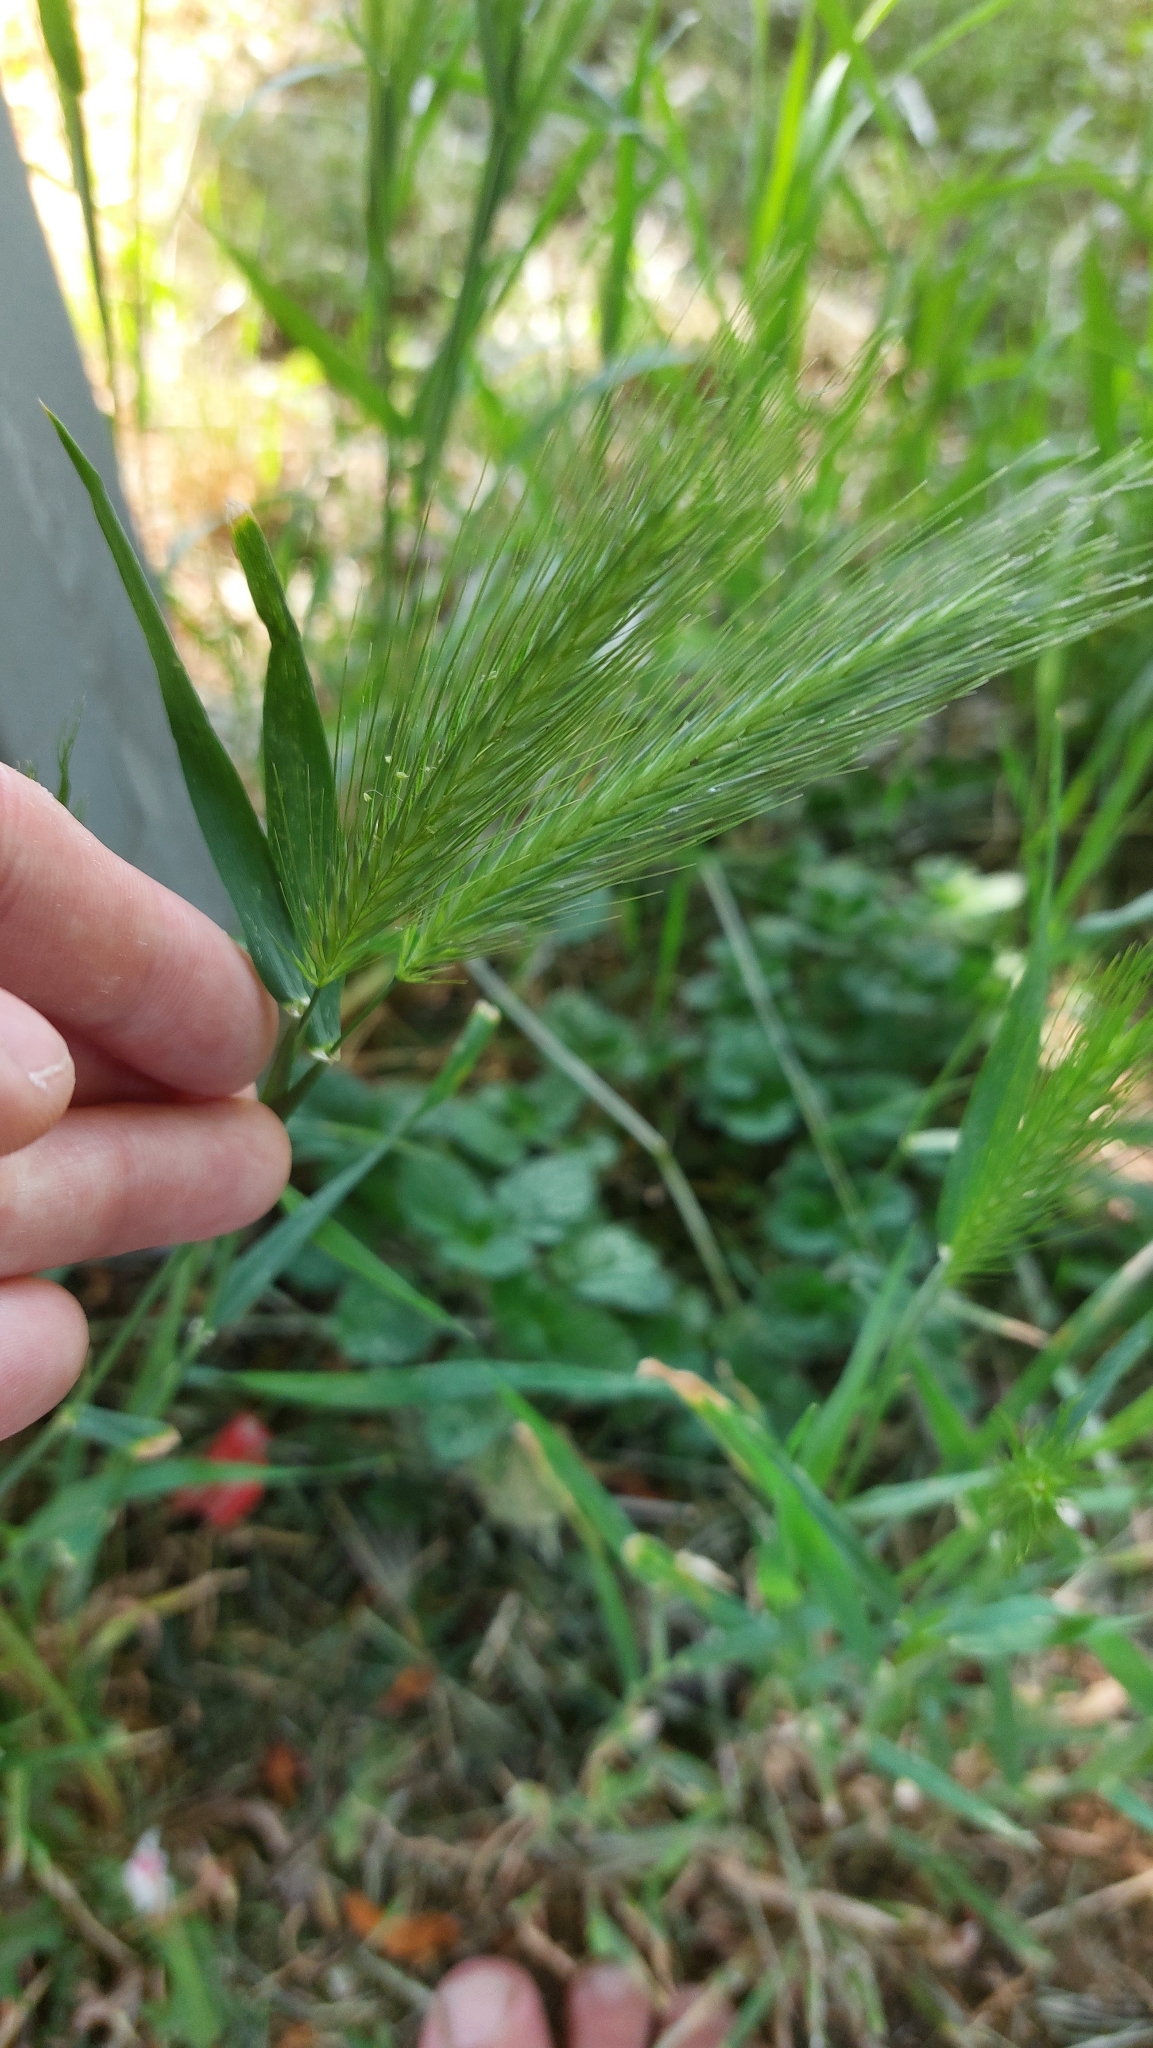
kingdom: Plantae
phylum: Tracheophyta
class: Liliopsida
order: Poales
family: Poaceae
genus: Hordeum
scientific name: Hordeum murinum
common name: Wall barley
